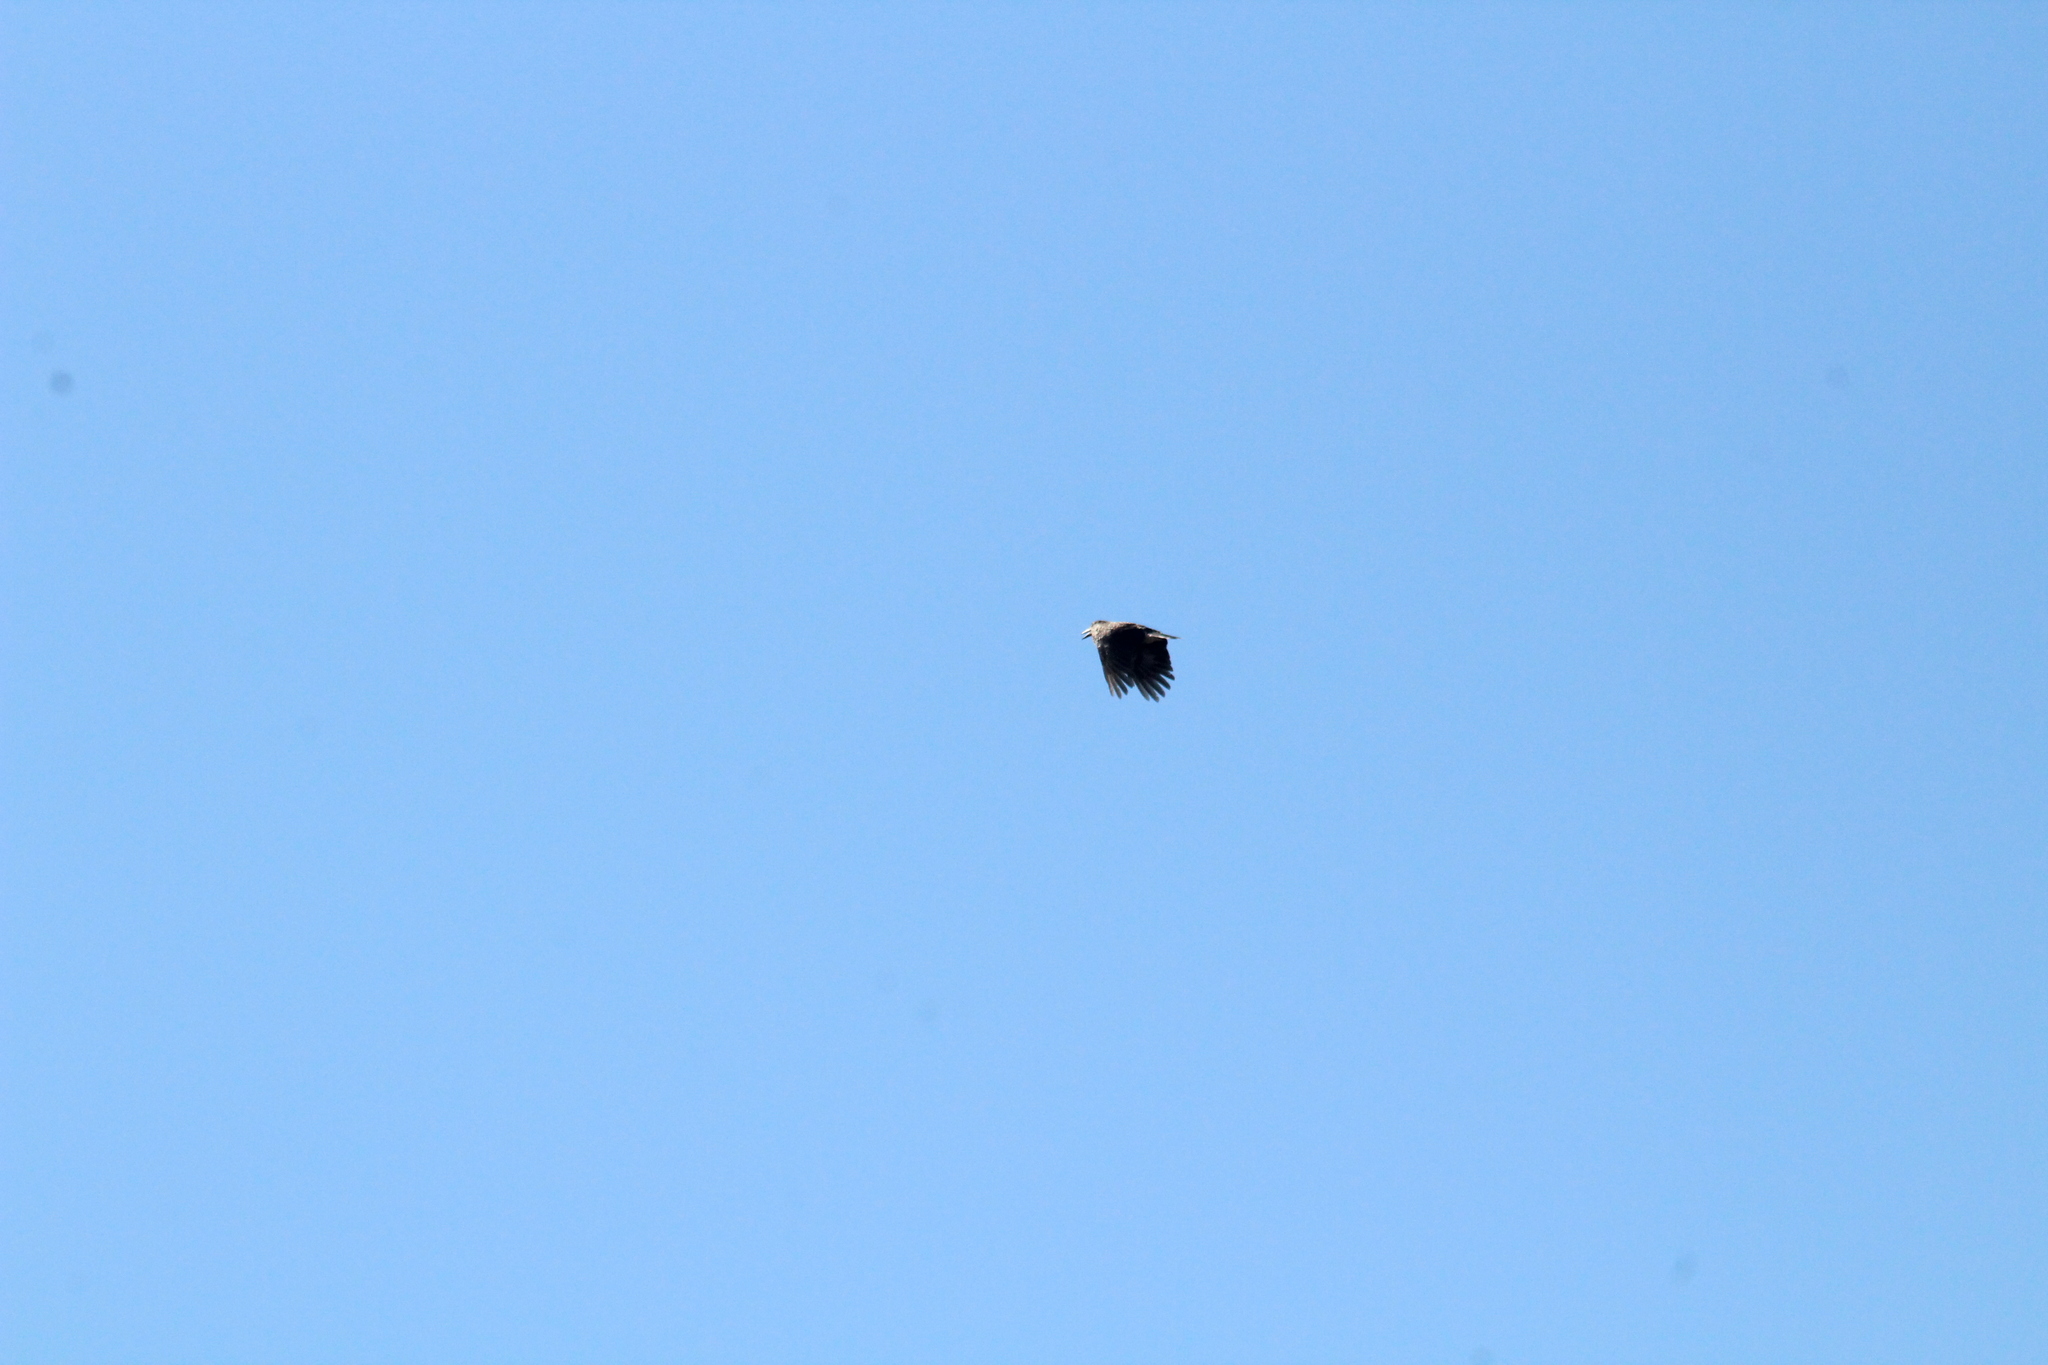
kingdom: Animalia
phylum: Chordata
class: Aves
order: Passeriformes
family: Corvidae
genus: Nucifraga
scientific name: Nucifraga caryocatactes
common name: Spotted nutcracker
